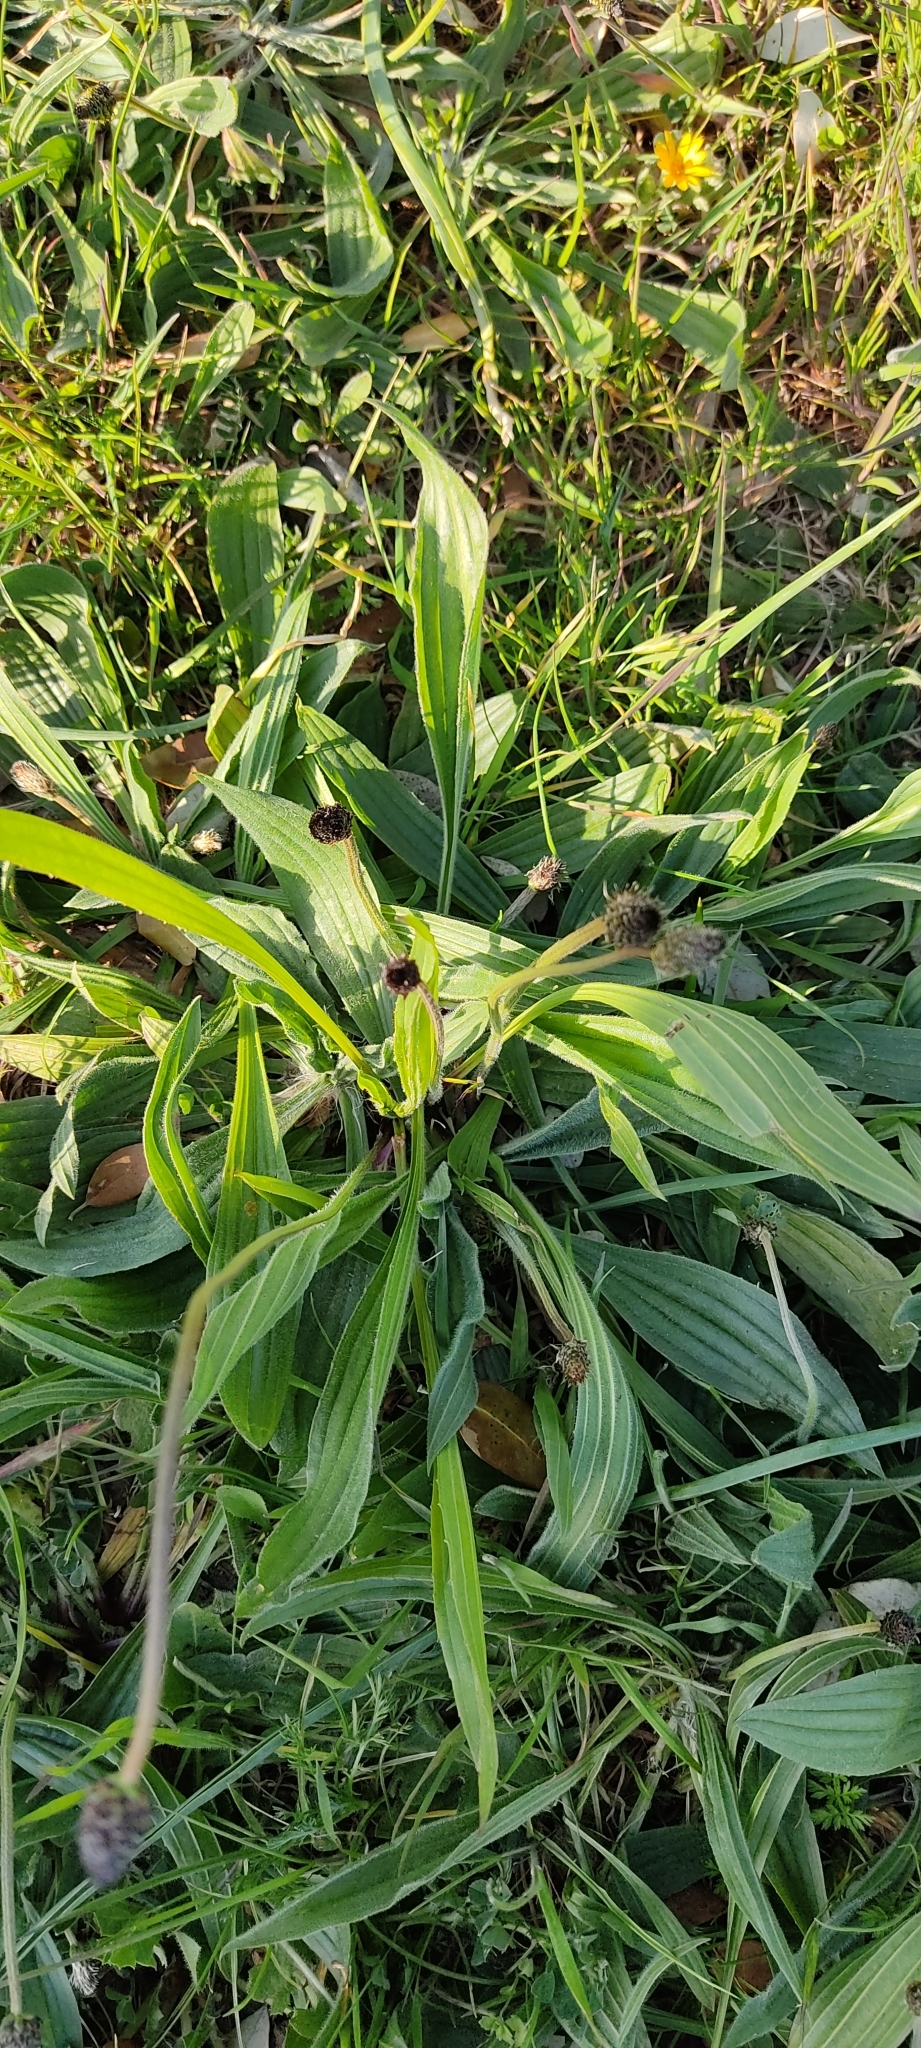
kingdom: Plantae
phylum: Tracheophyta
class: Magnoliopsida
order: Lamiales
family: Plantaginaceae
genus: Plantago
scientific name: Plantago lanceolata
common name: Ribwort plantain
